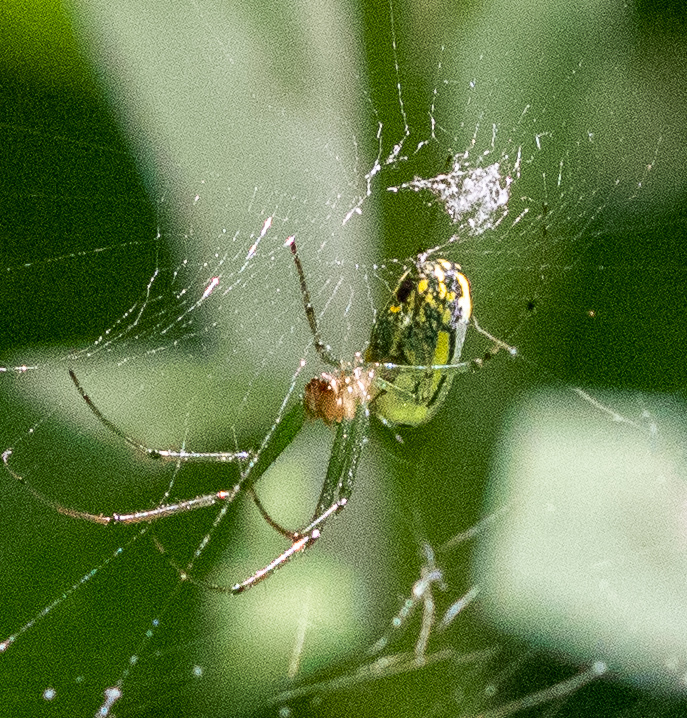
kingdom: Animalia
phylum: Arthropoda
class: Arachnida
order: Araneae
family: Tetragnathidae
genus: Leucauge
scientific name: Leucauge venusta
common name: Longjawed orb weavers
